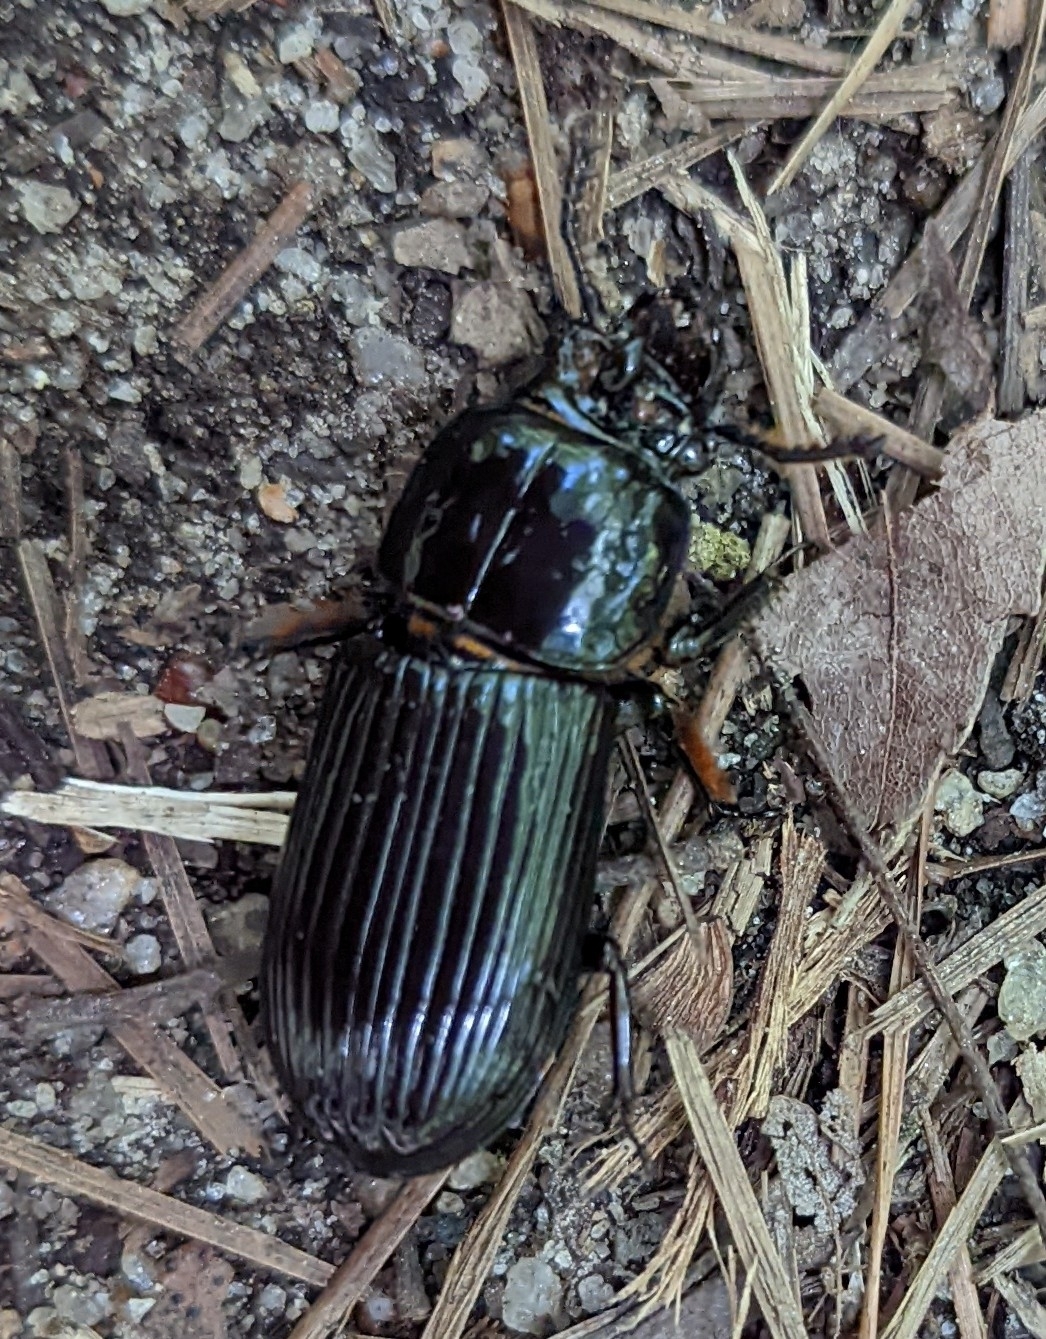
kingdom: Animalia
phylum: Arthropoda
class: Insecta
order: Coleoptera
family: Passalidae
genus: Odontotaenius
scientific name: Odontotaenius disjunctus
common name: Patent leather beetle
